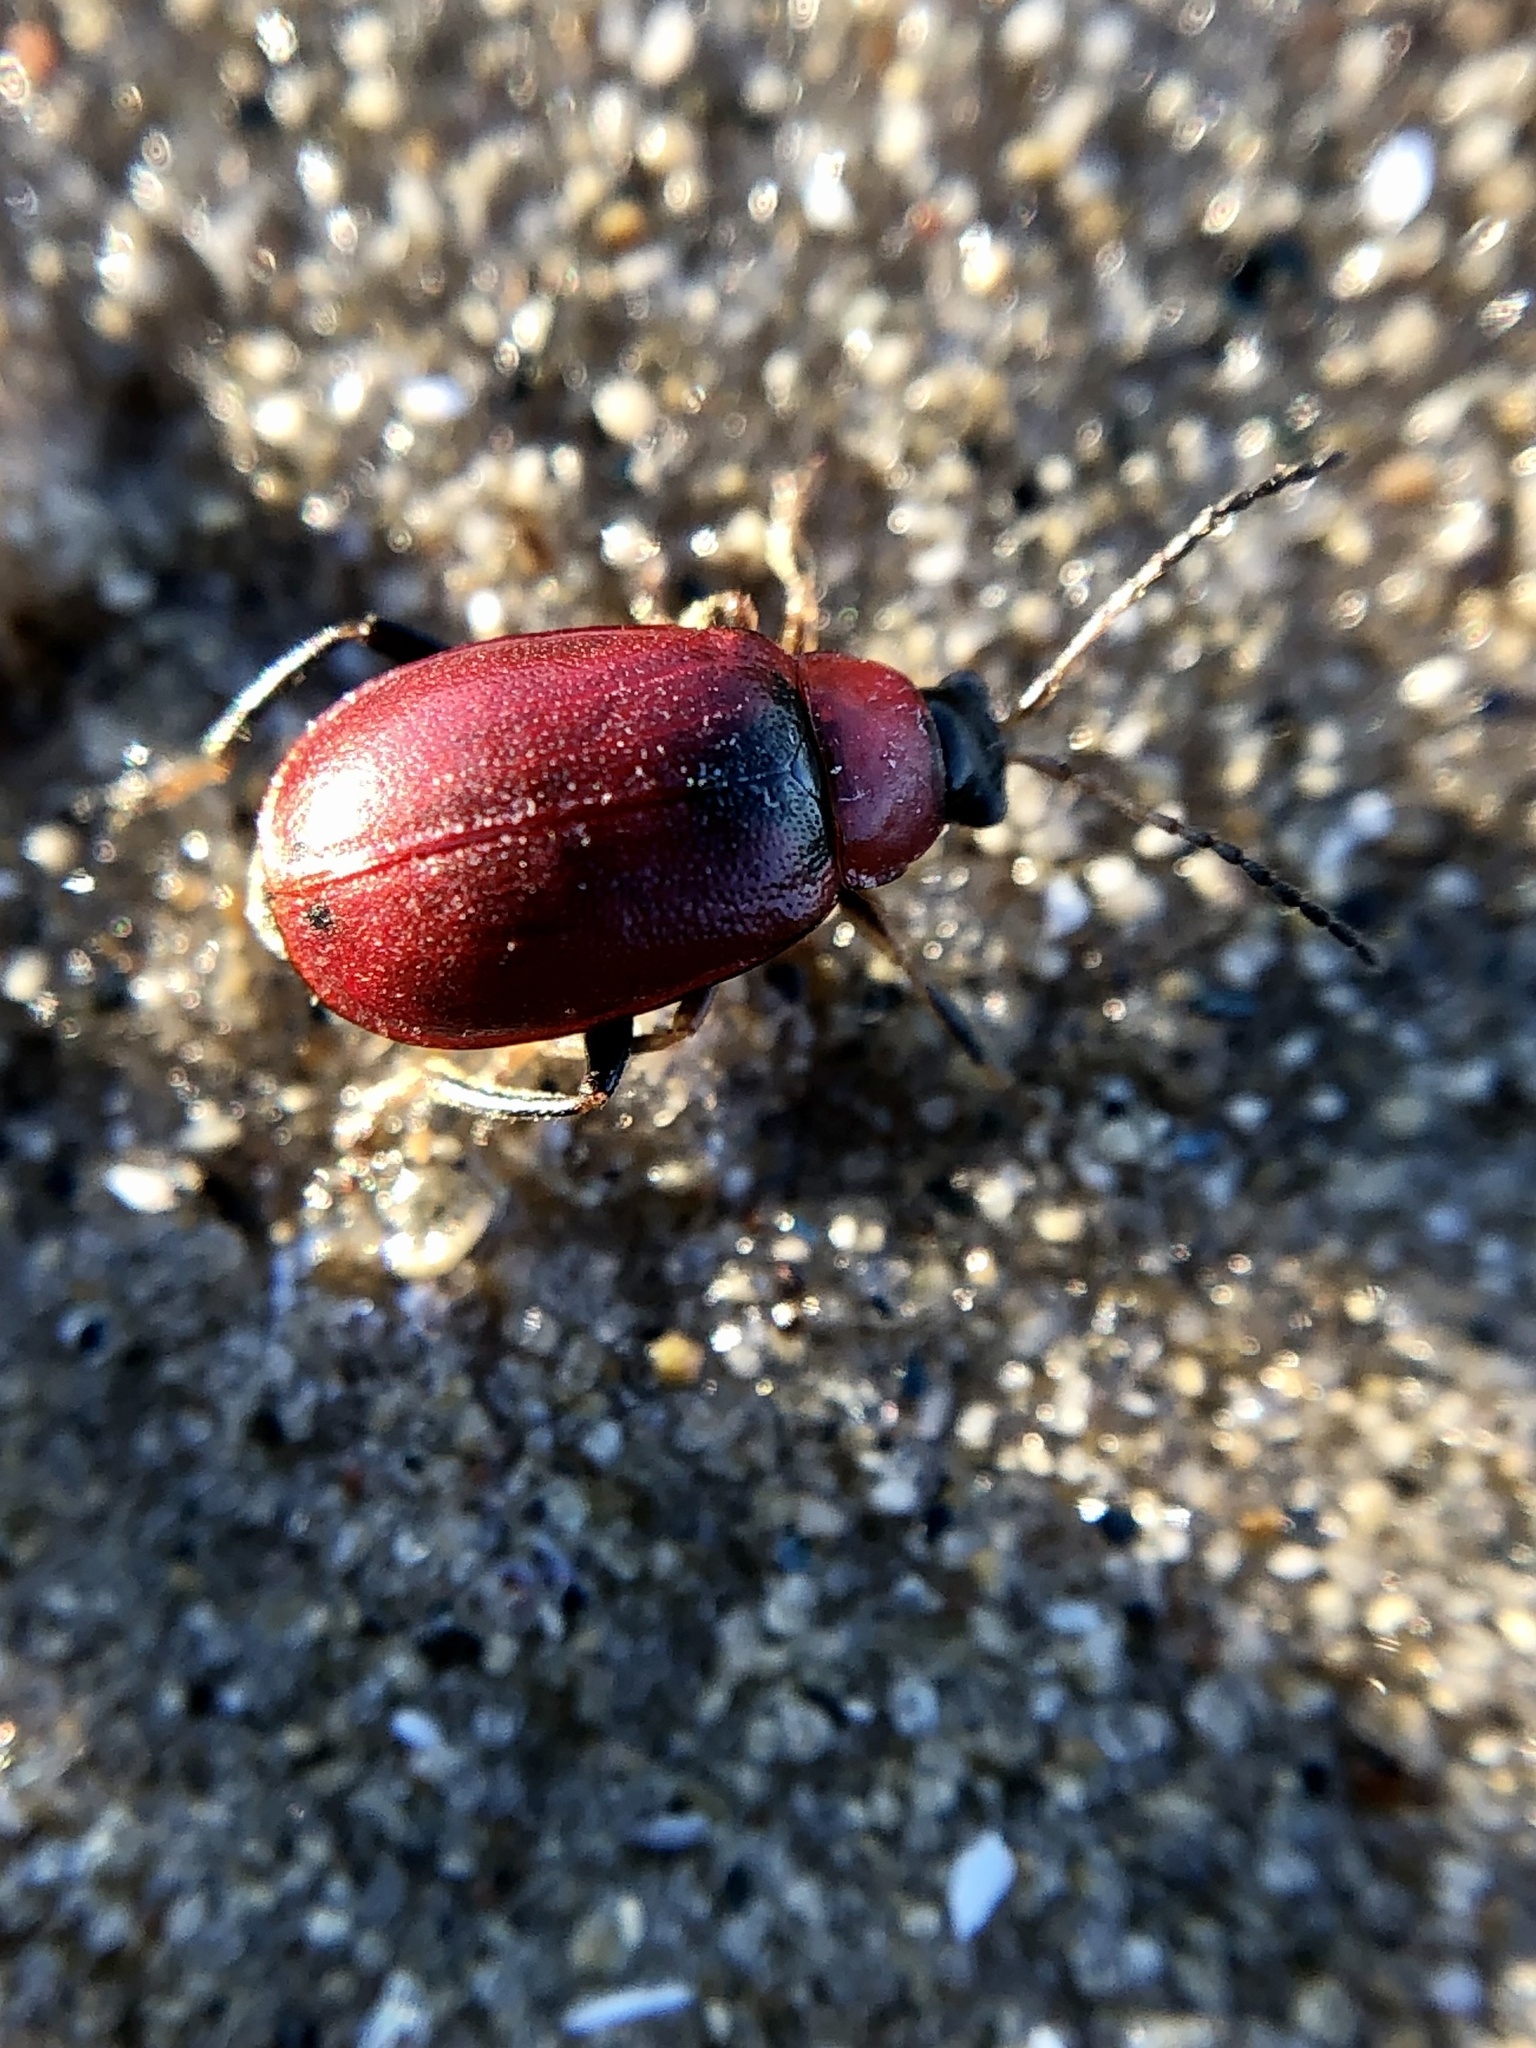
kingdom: Animalia
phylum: Arthropoda
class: Insecta
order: Coleoptera
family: Chrysomelidae
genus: Lilioceris
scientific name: Lilioceris lilii
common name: Lily beetle
